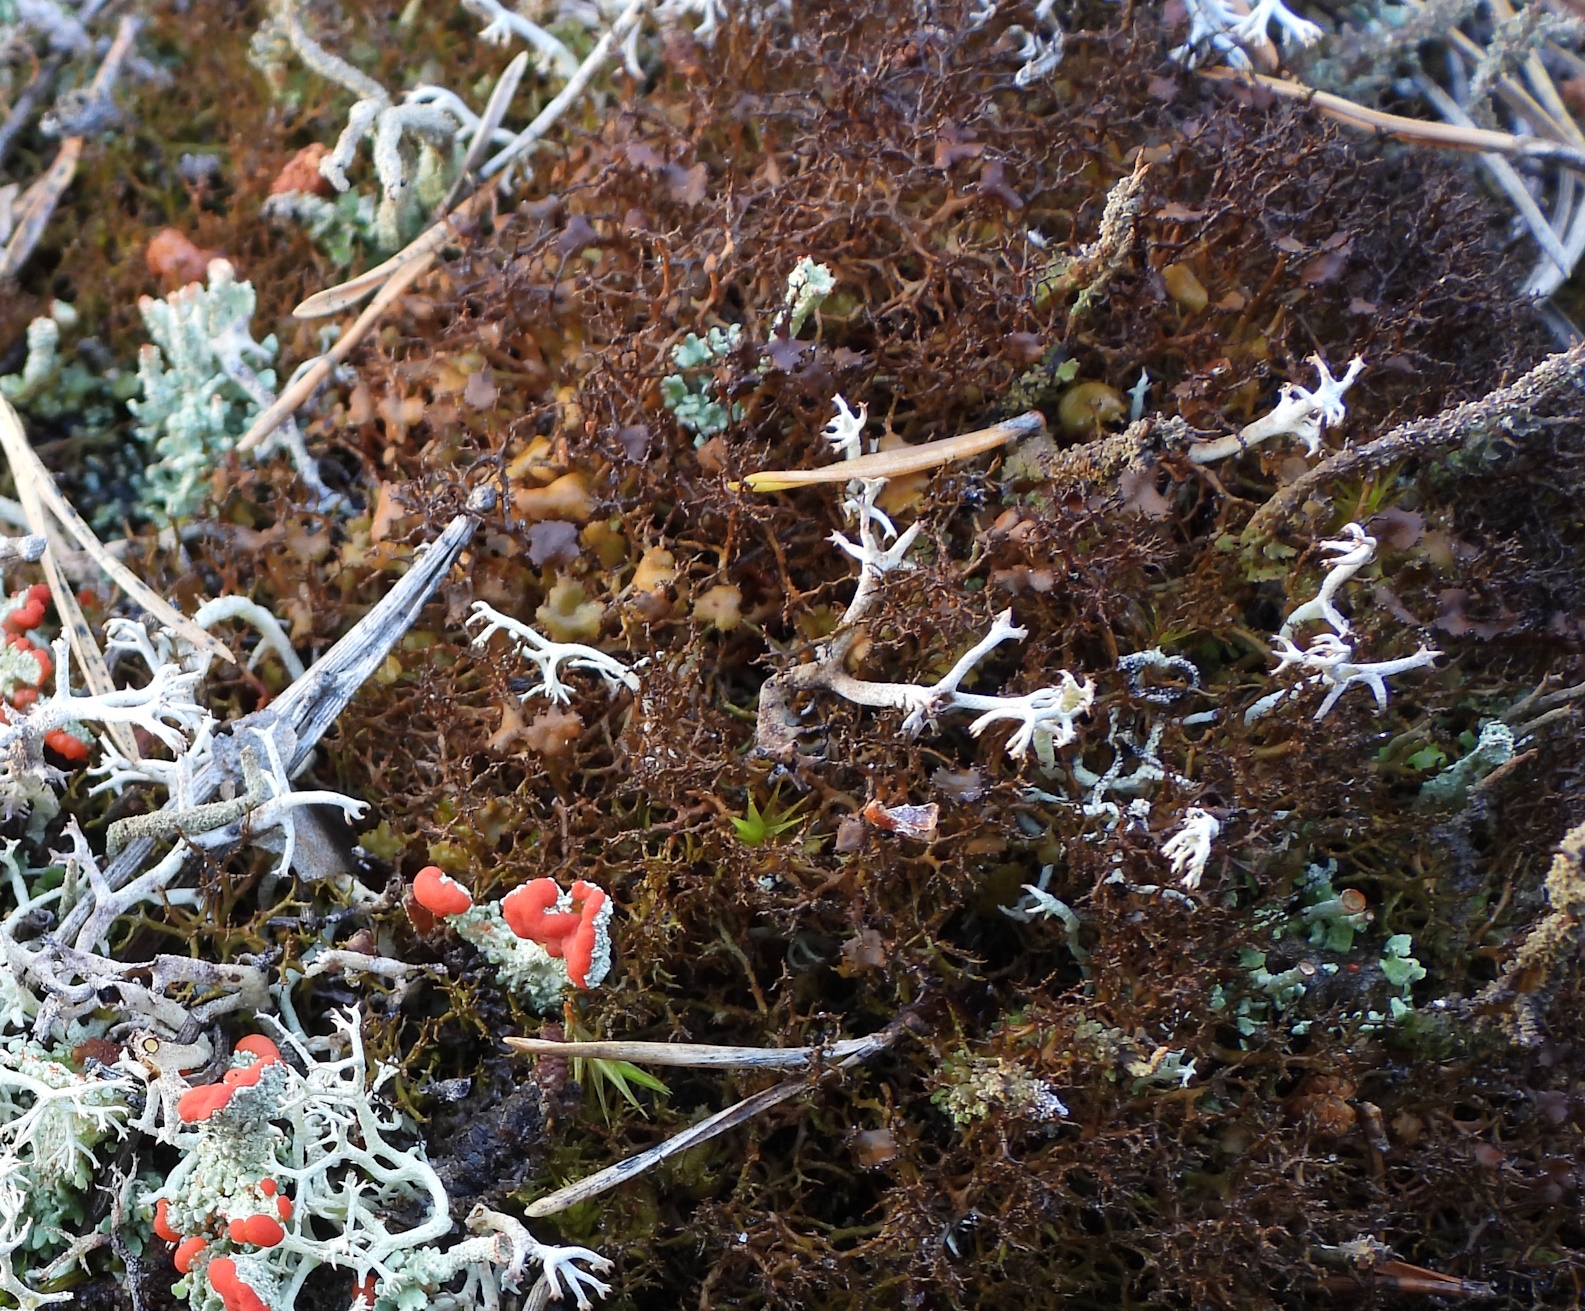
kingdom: Fungi
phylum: Ascomycota
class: Lecanoromycetes
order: Lecanorales
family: Parmeliaceae
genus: Cetraria
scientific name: Cetraria muricata
